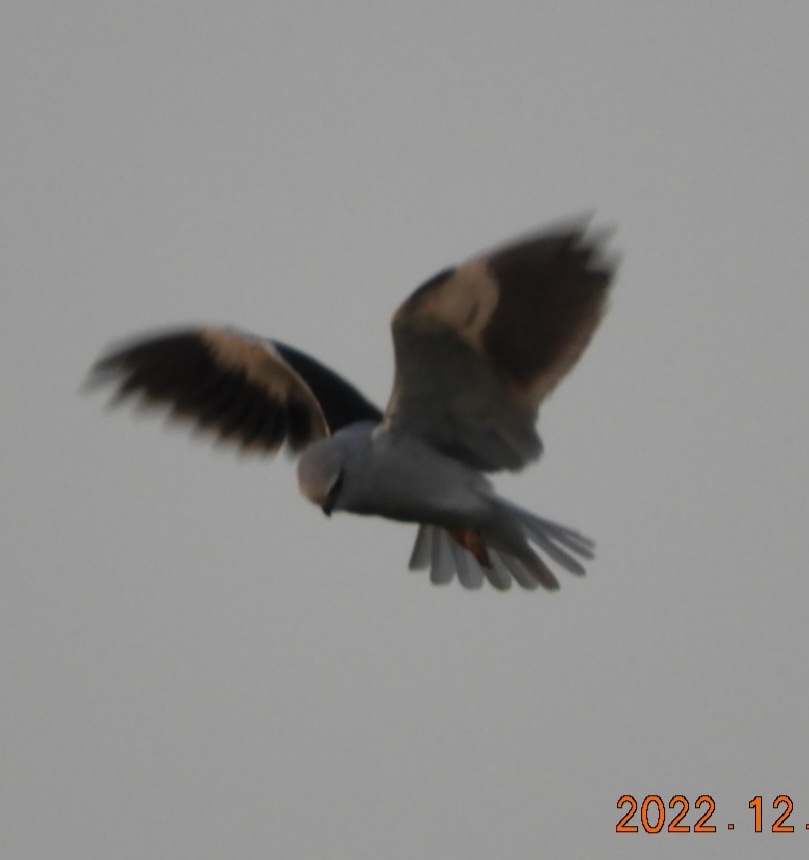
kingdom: Animalia
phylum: Chordata
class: Aves
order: Accipitriformes
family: Accipitridae
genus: Elanus
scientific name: Elanus caeruleus
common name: Black-winged kite
